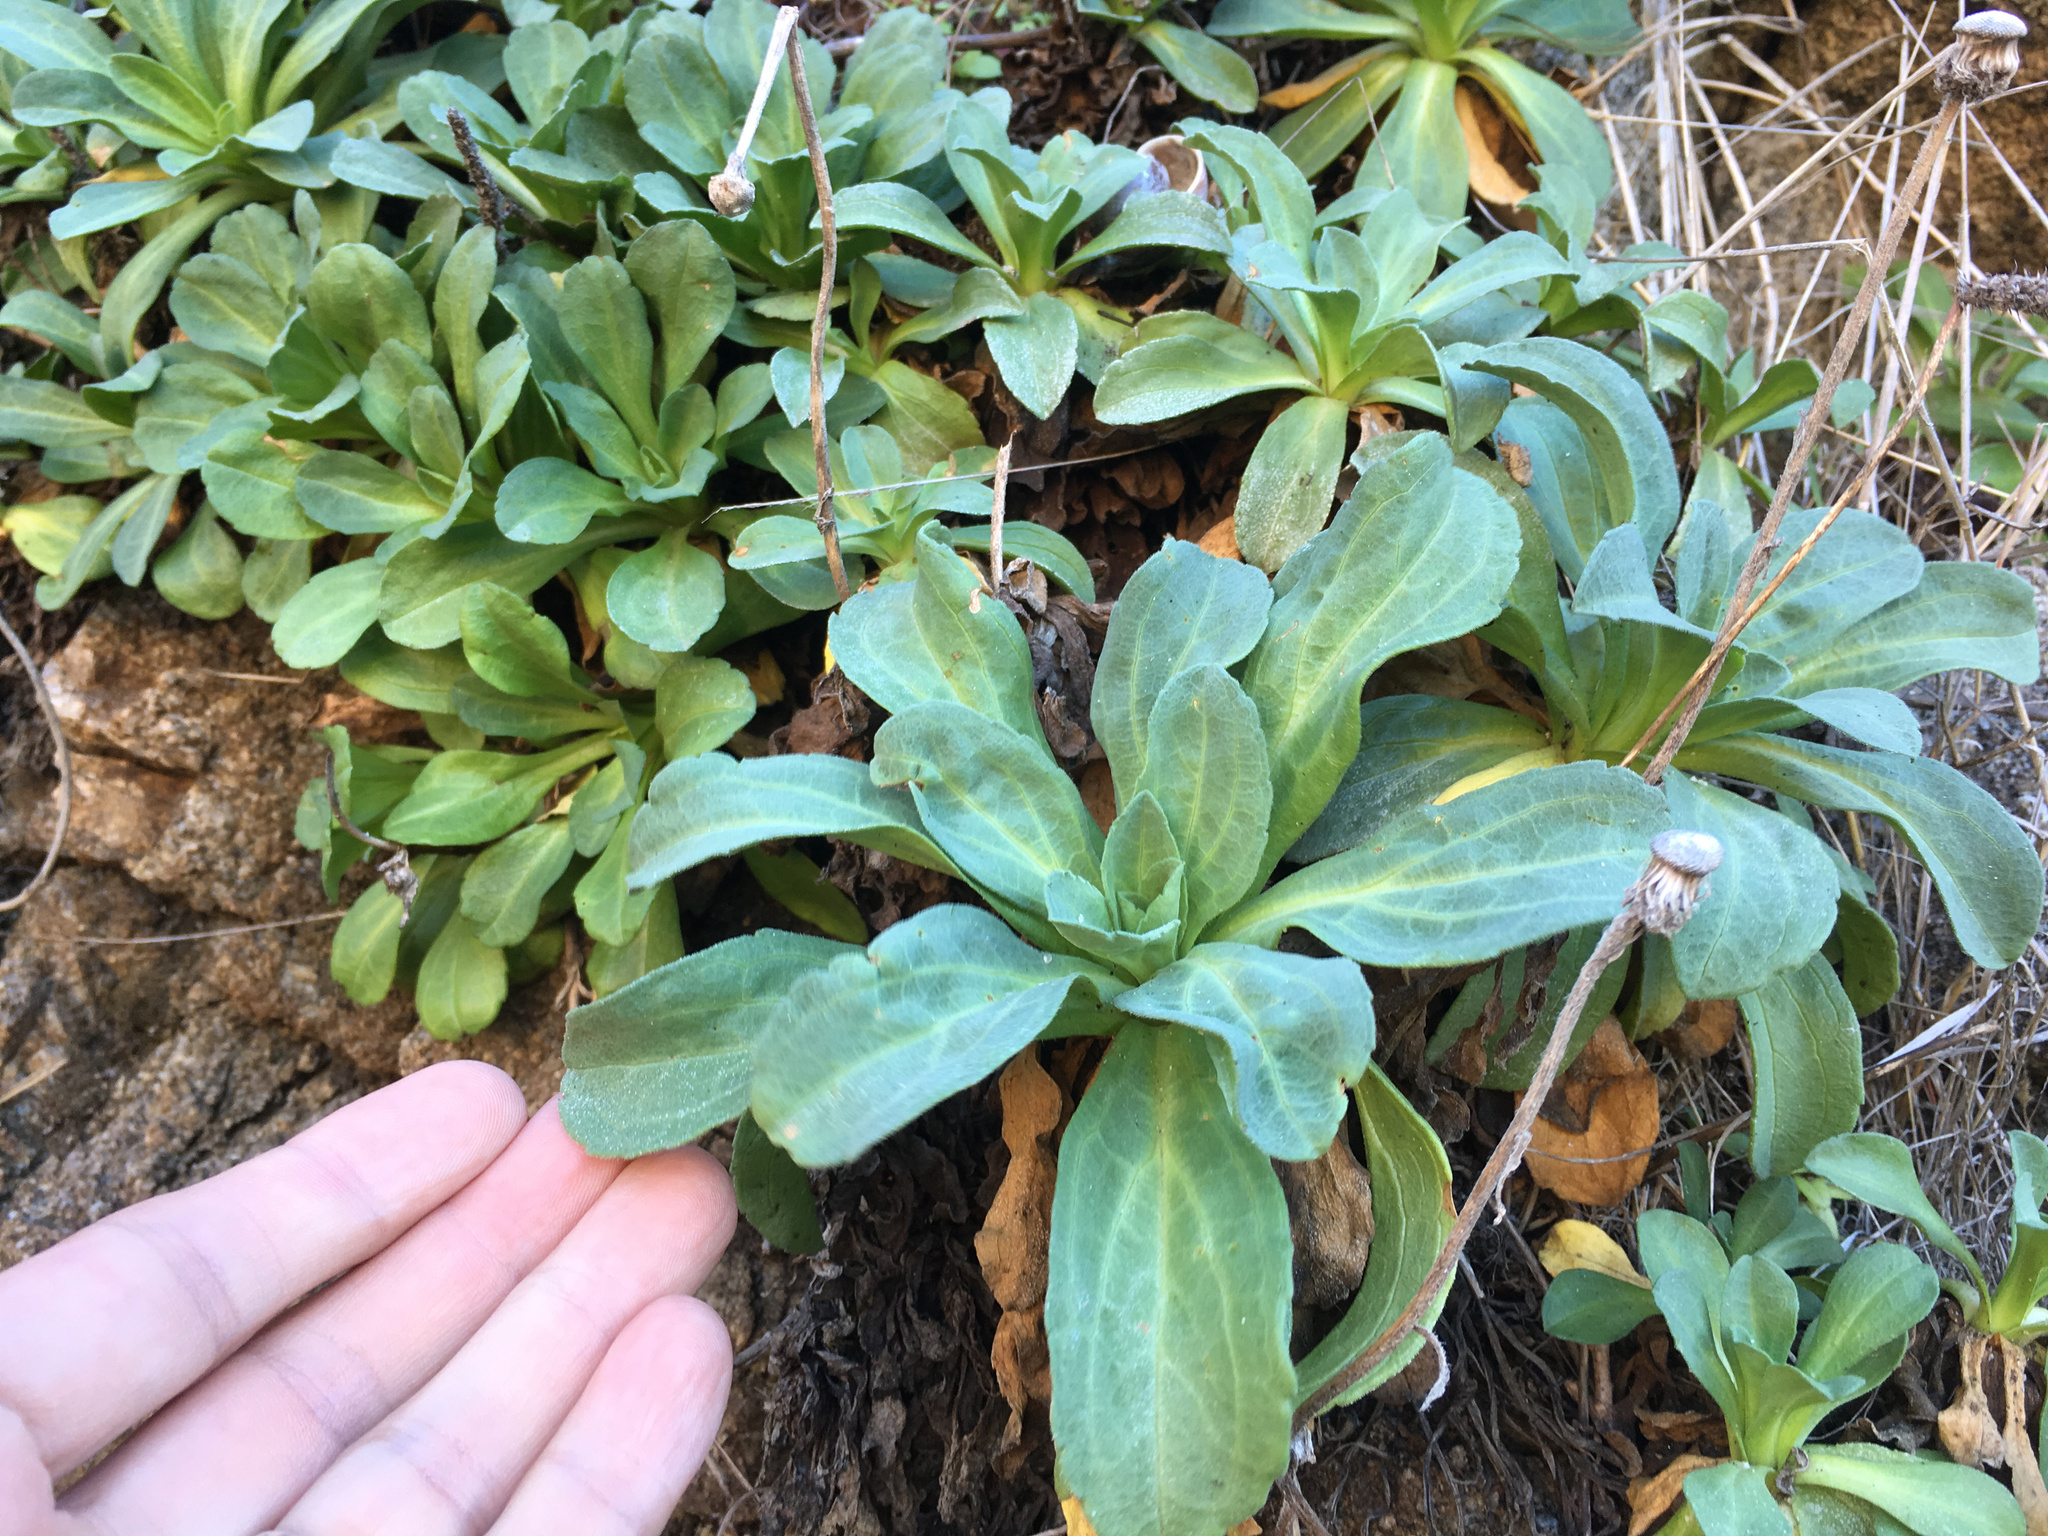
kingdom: Plantae
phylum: Tracheophyta
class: Magnoliopsida
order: Asterales
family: Asteraceae
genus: Erigeron
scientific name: Erigeron glaucus
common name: Seaside daisy
